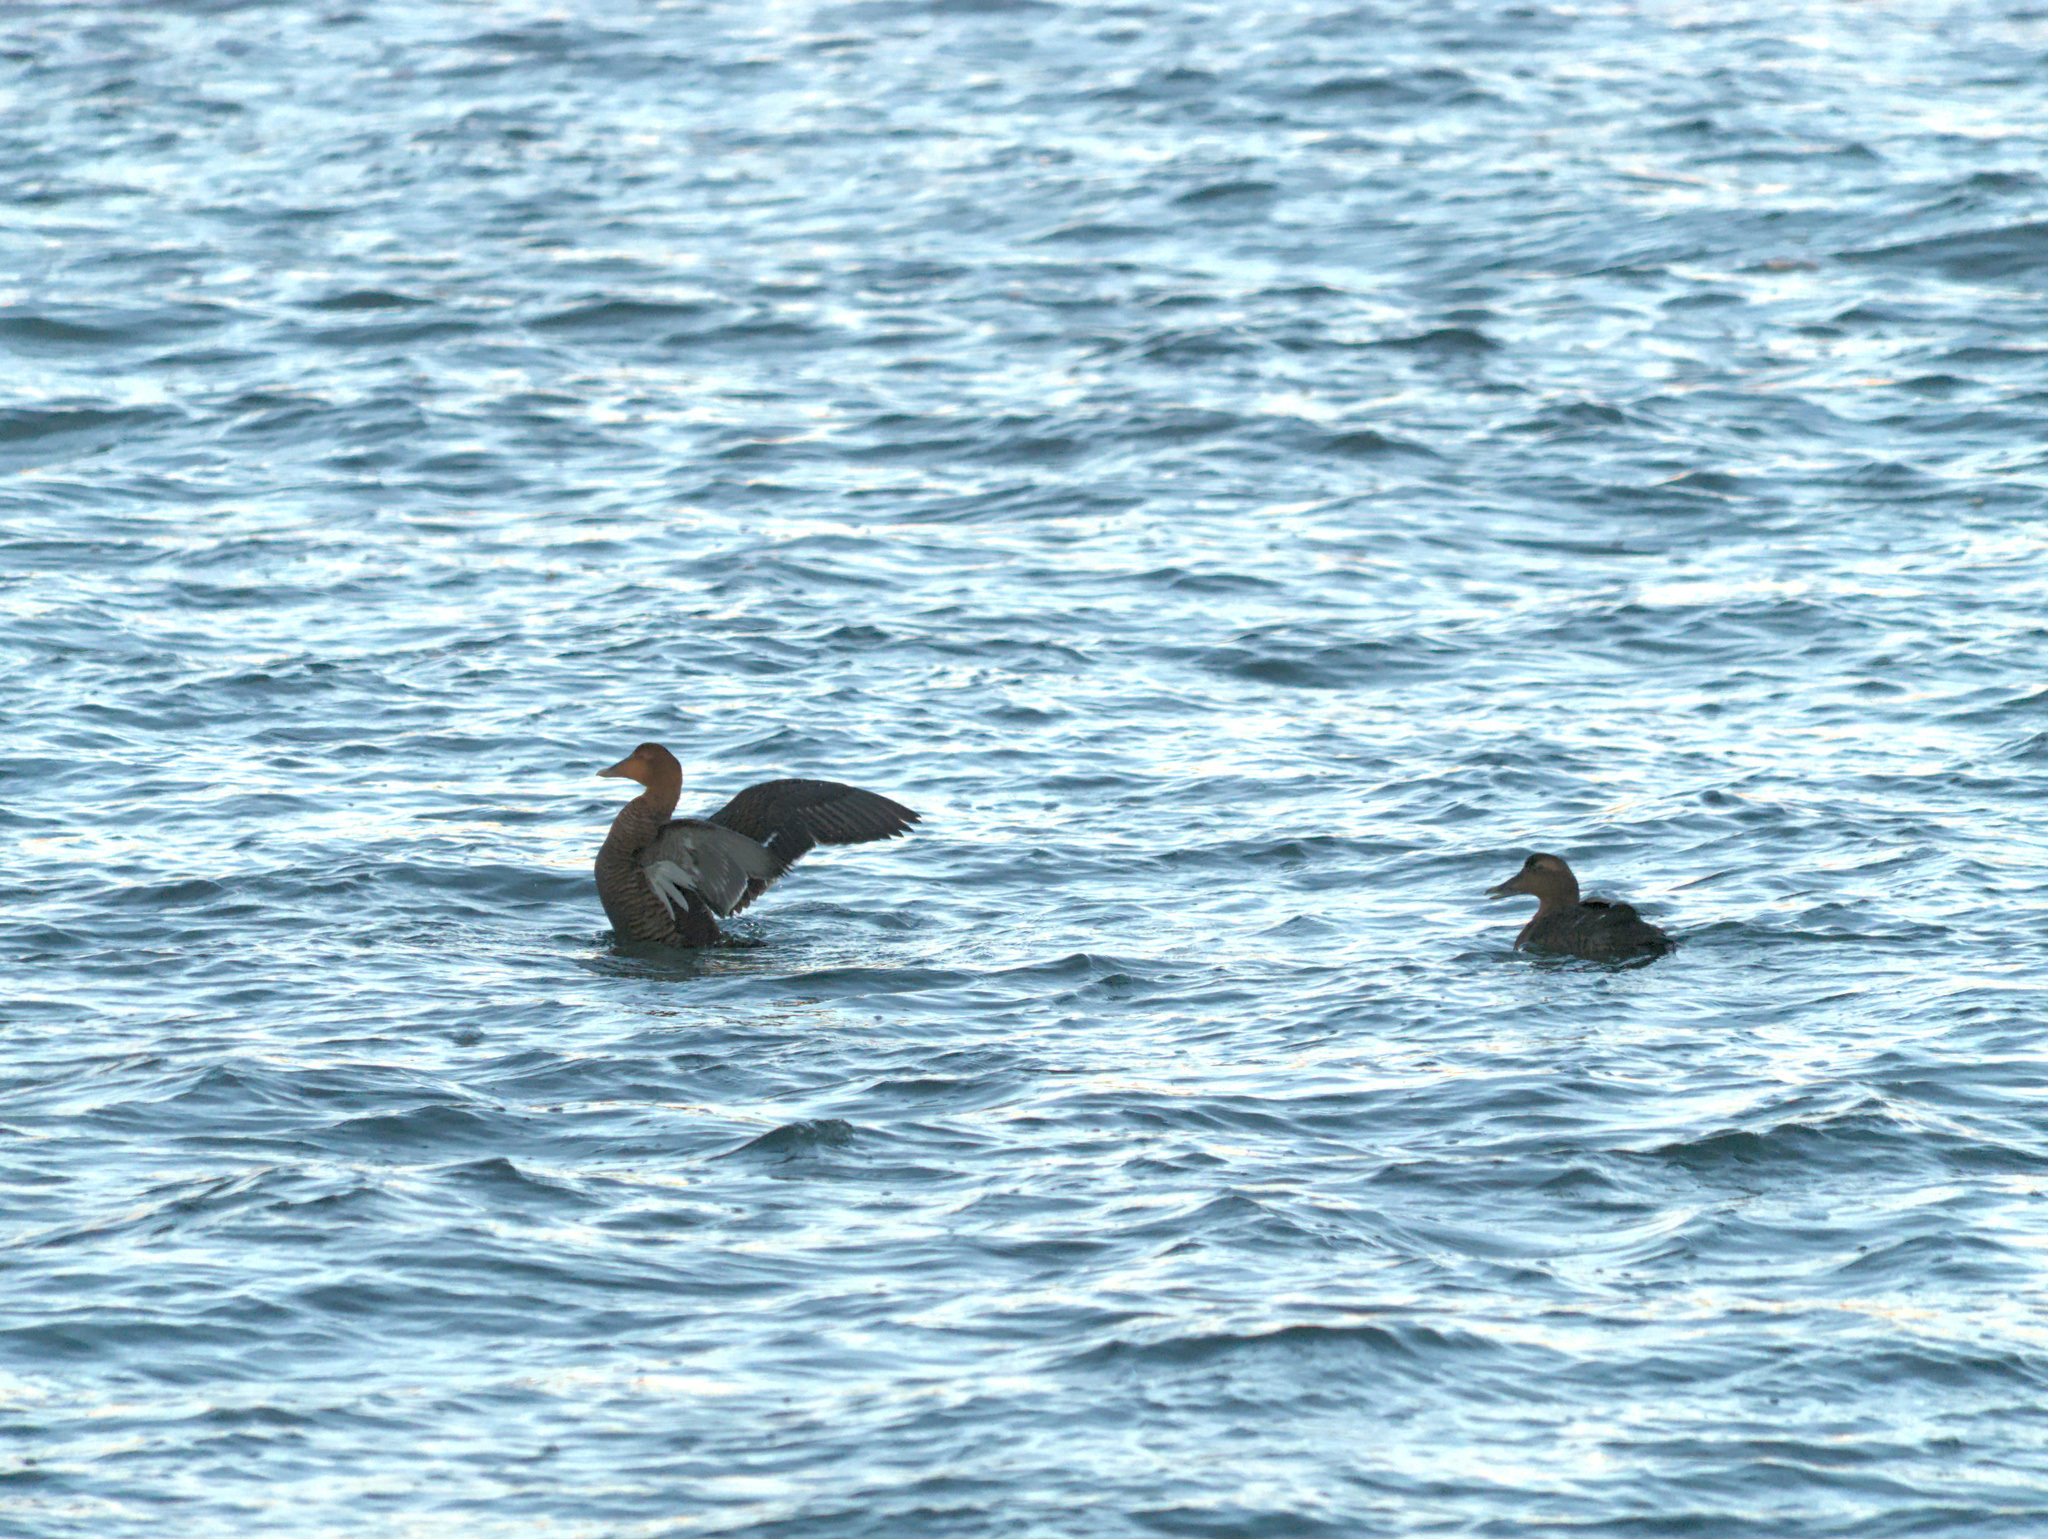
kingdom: Animalia
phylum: Chordata
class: Aves
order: Anseriformes
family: Anatidae
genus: Somateria
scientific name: Somateria mollissima
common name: Common eider
